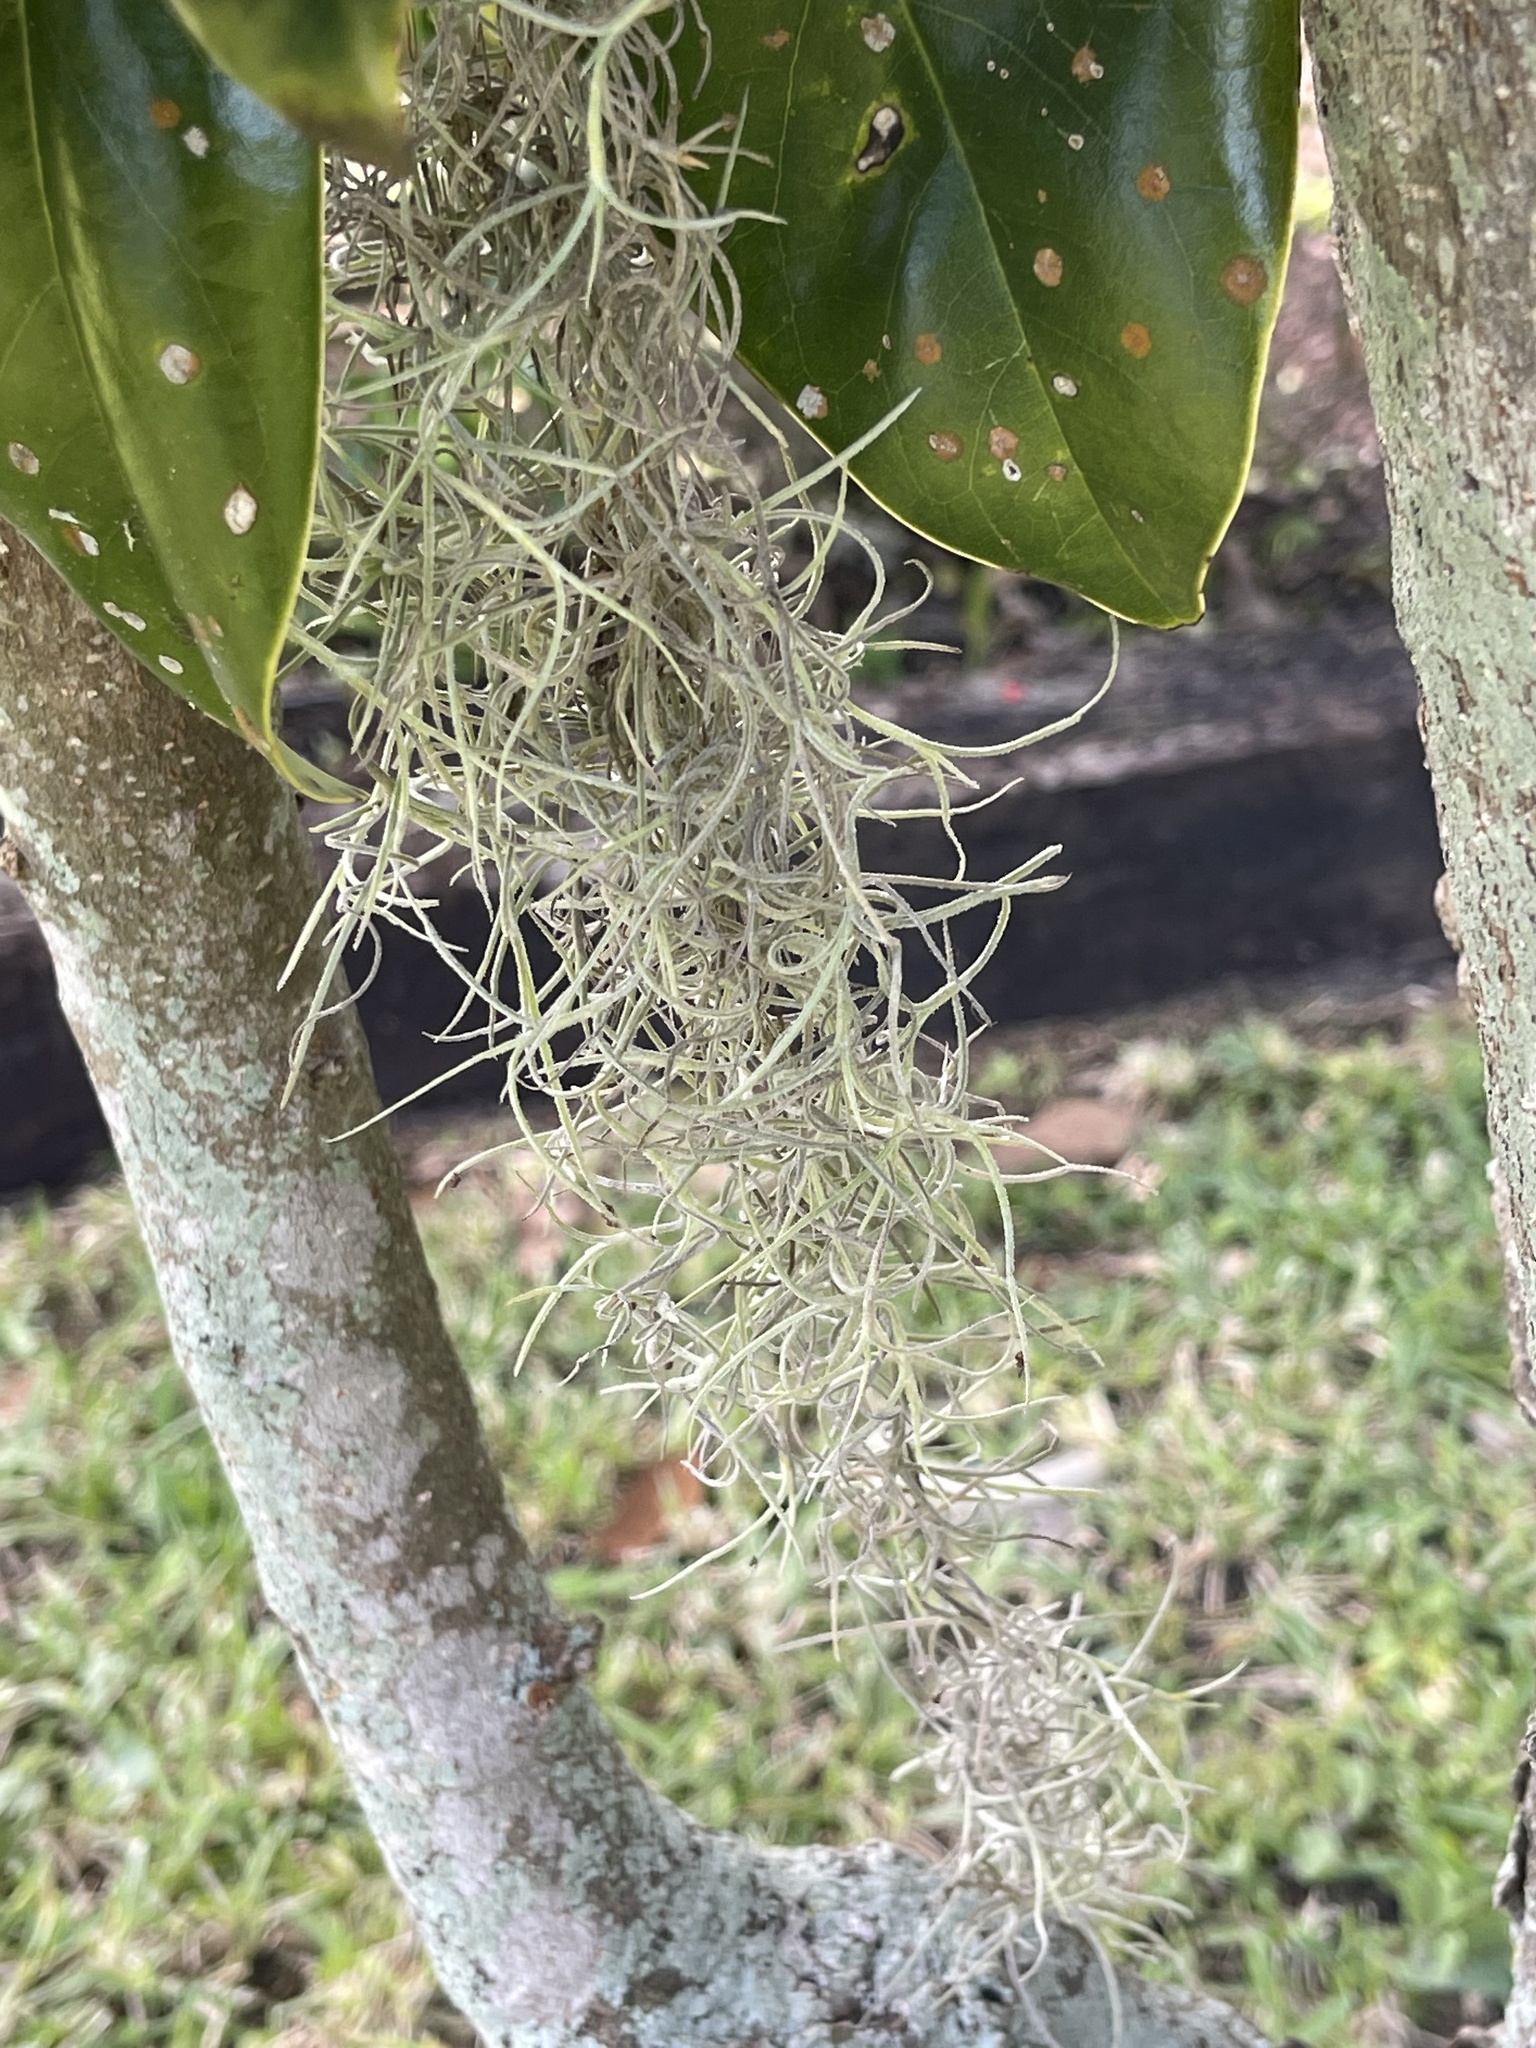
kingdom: Plantae
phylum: Tracheophyta
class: Liliopsida
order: Poales
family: Bromeliaceae
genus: Tillandsia
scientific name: Tillandsia usneoides
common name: Spanish moss
